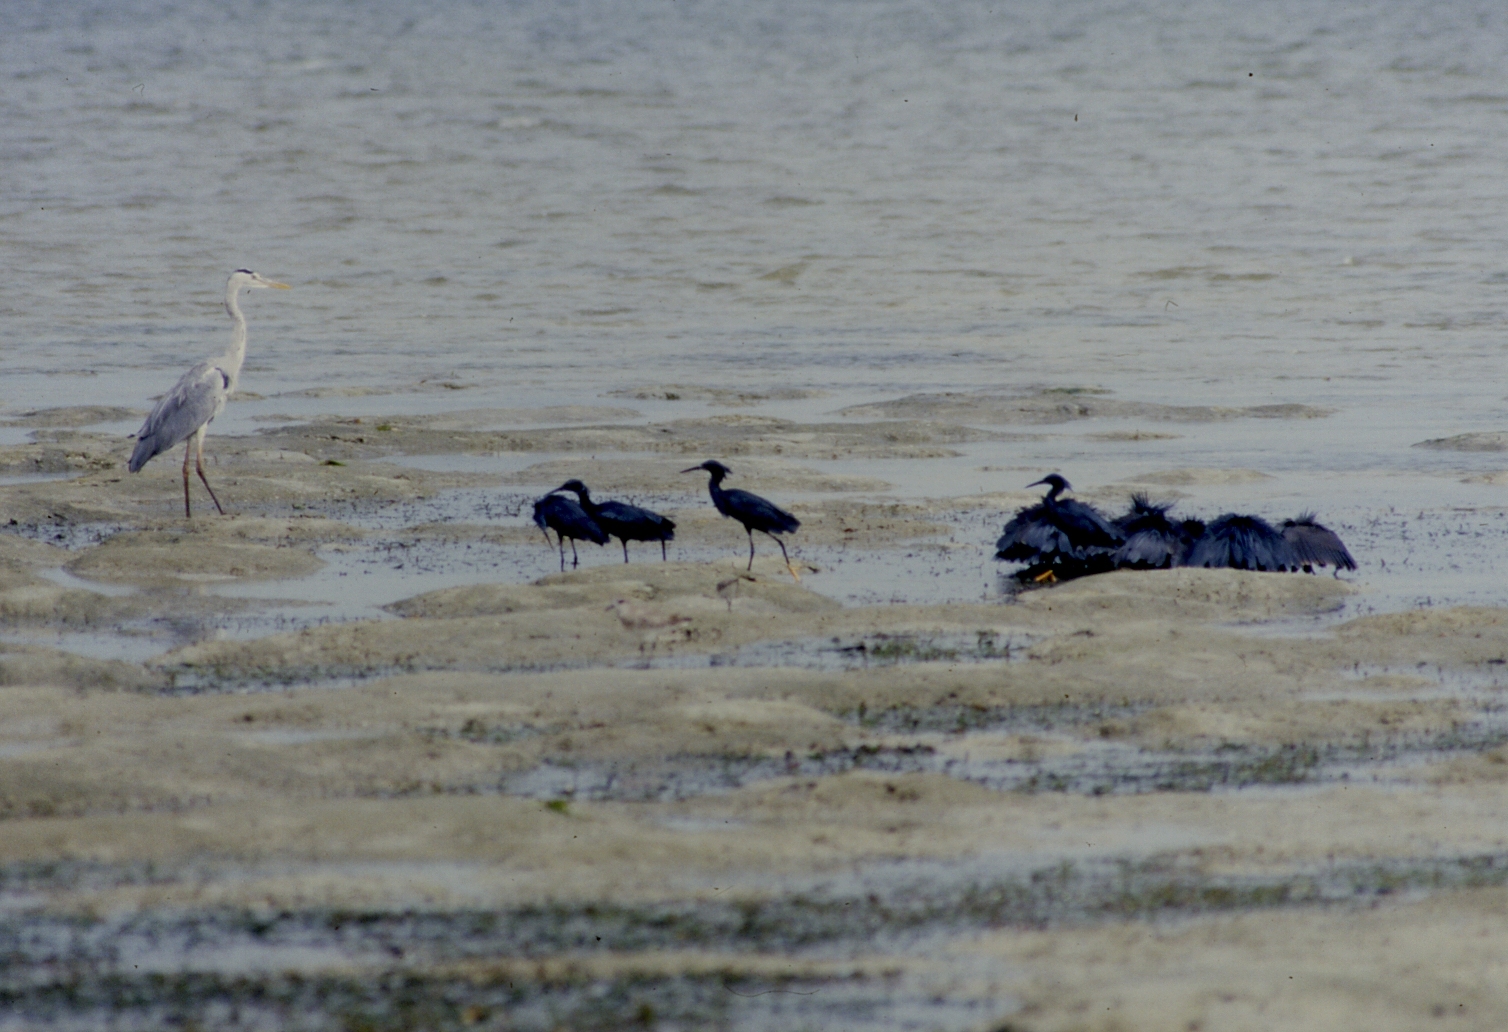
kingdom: Animalia
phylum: Chordata
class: Aves
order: Pelecaniformes
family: Ardeidae
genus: Egretta
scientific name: Egretta ardesiaca
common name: Black heron
